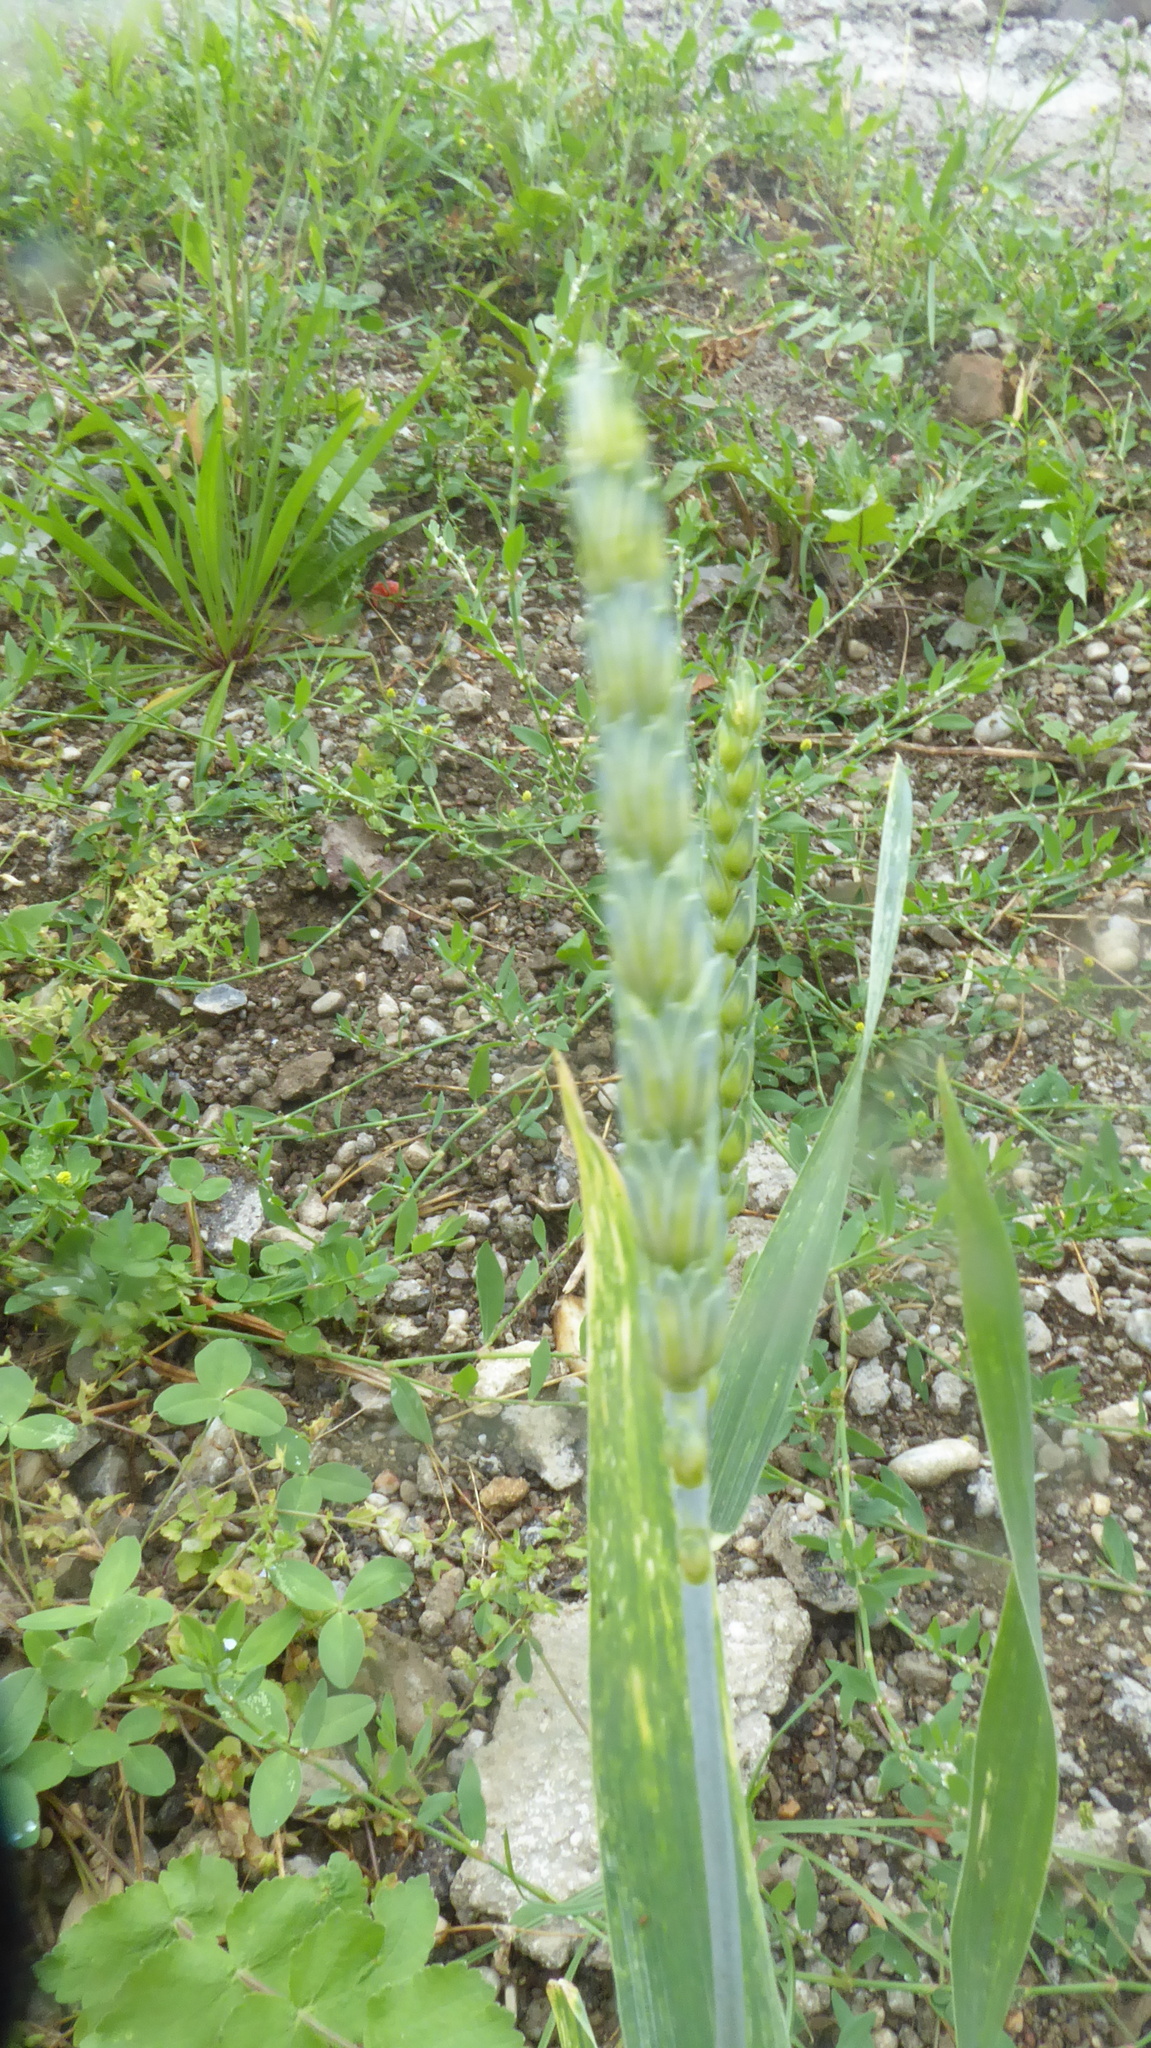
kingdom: Plantae
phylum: Tracheophyta
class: Liliopsida
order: Poales
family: Poaceae
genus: Triticum
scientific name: Triticum aestivum
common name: Common wheat
